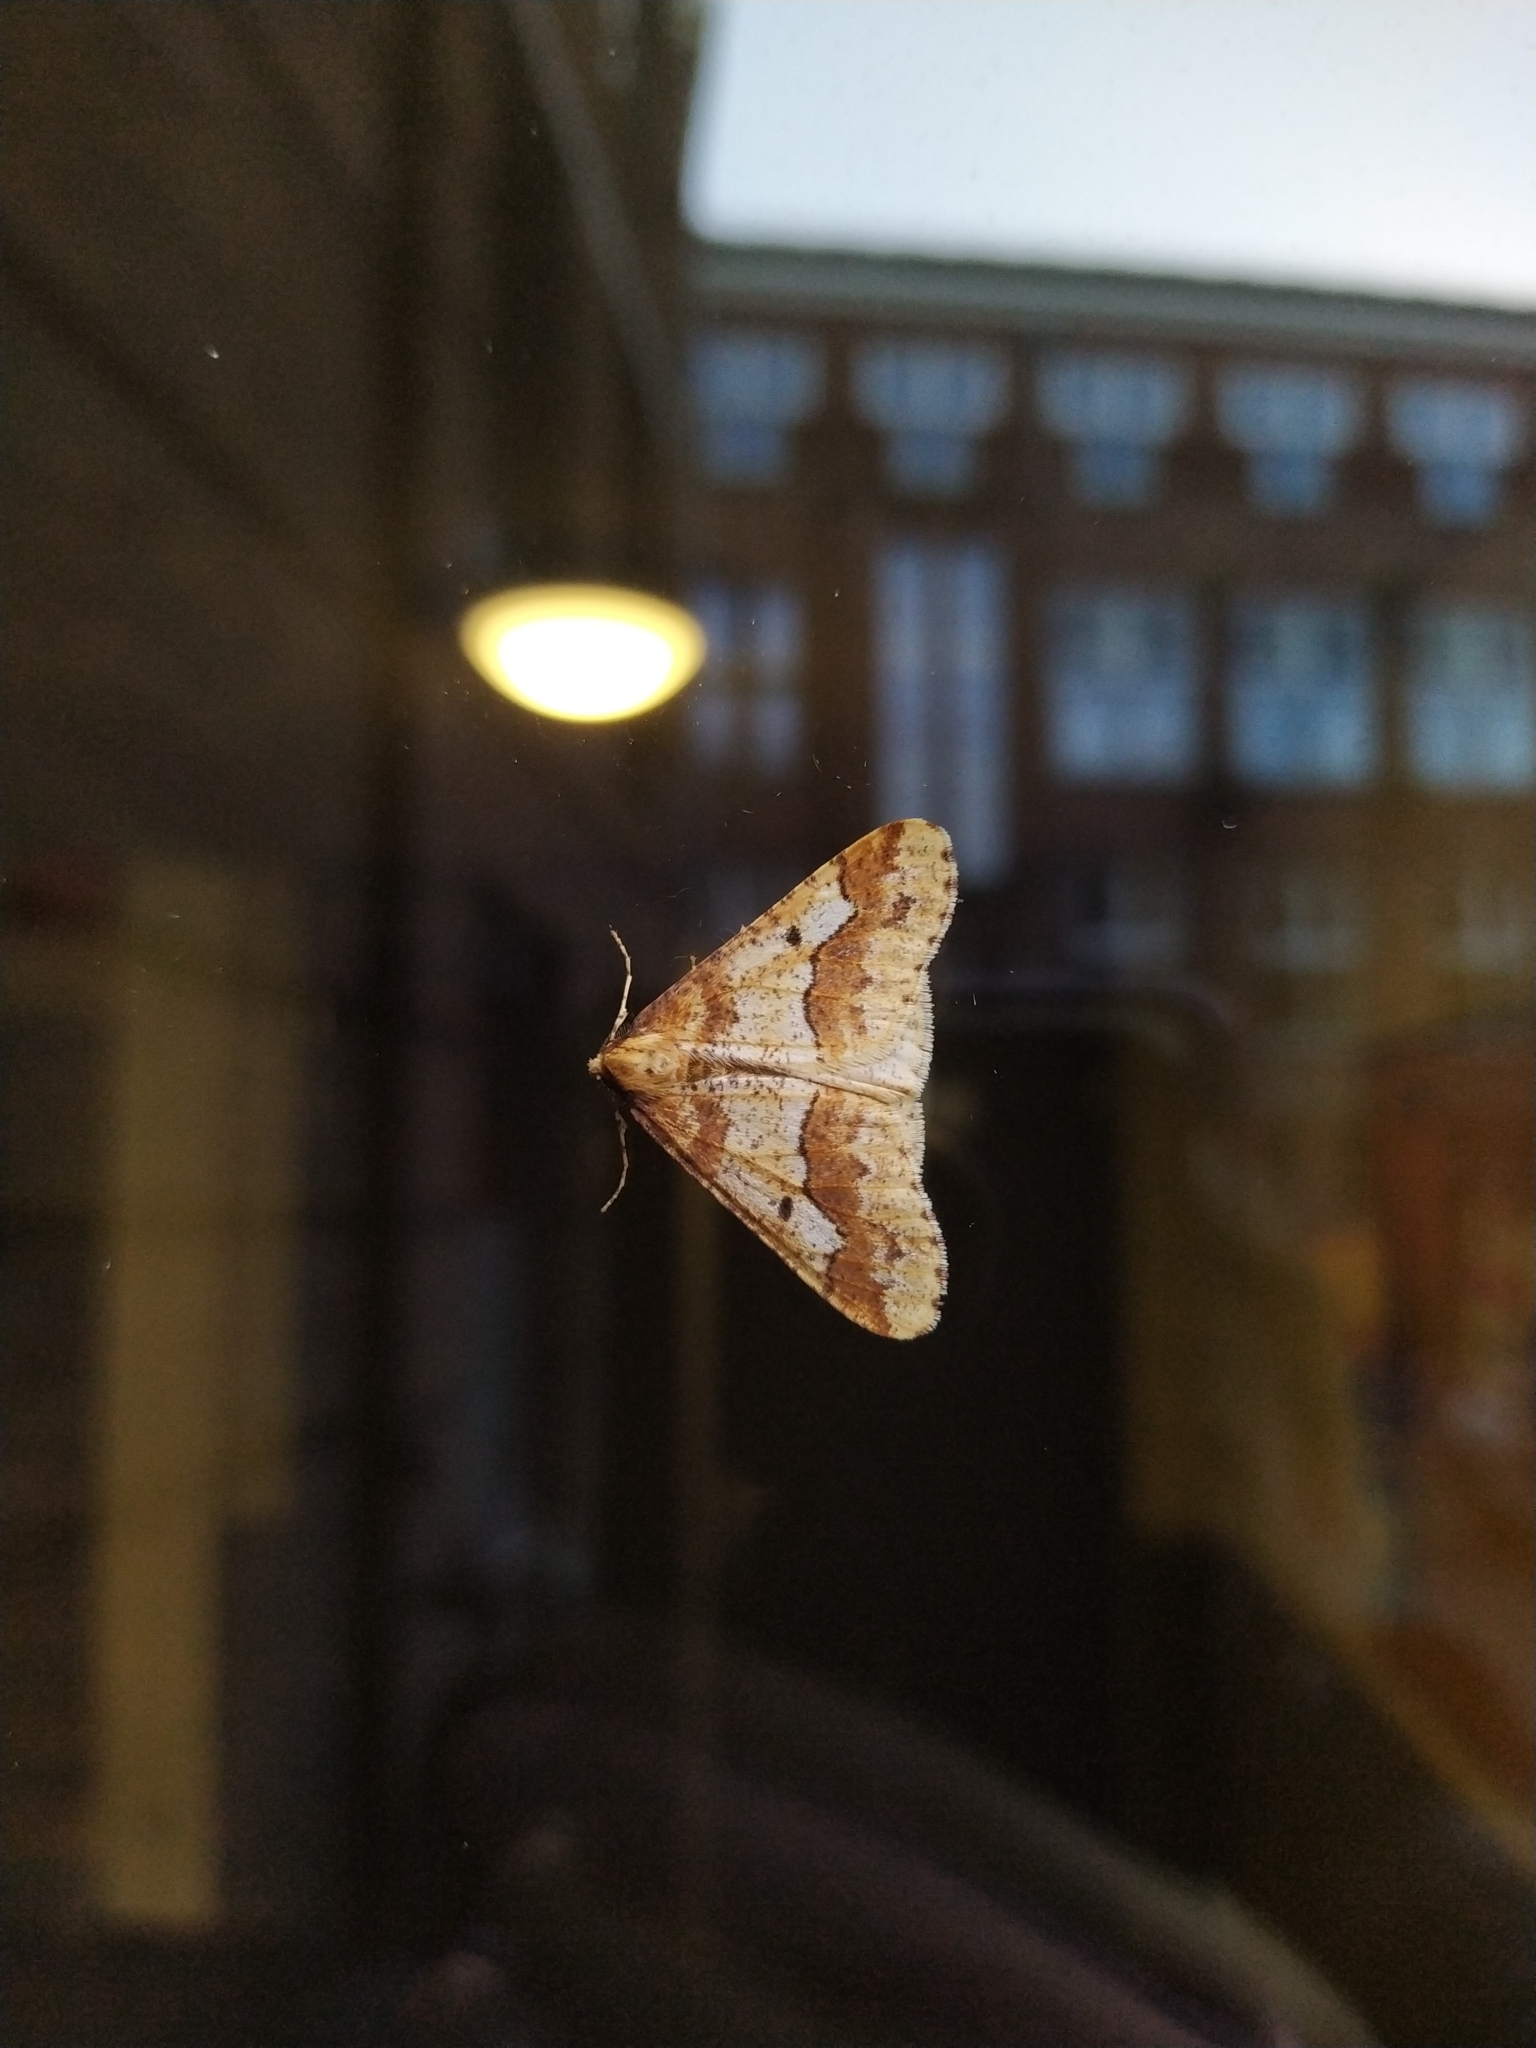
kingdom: Animalia
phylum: Arthropoda
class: Insecta
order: Lepidoptera
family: Geometridae
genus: Erannis
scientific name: Erannis defoliaria
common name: Mottled umber
